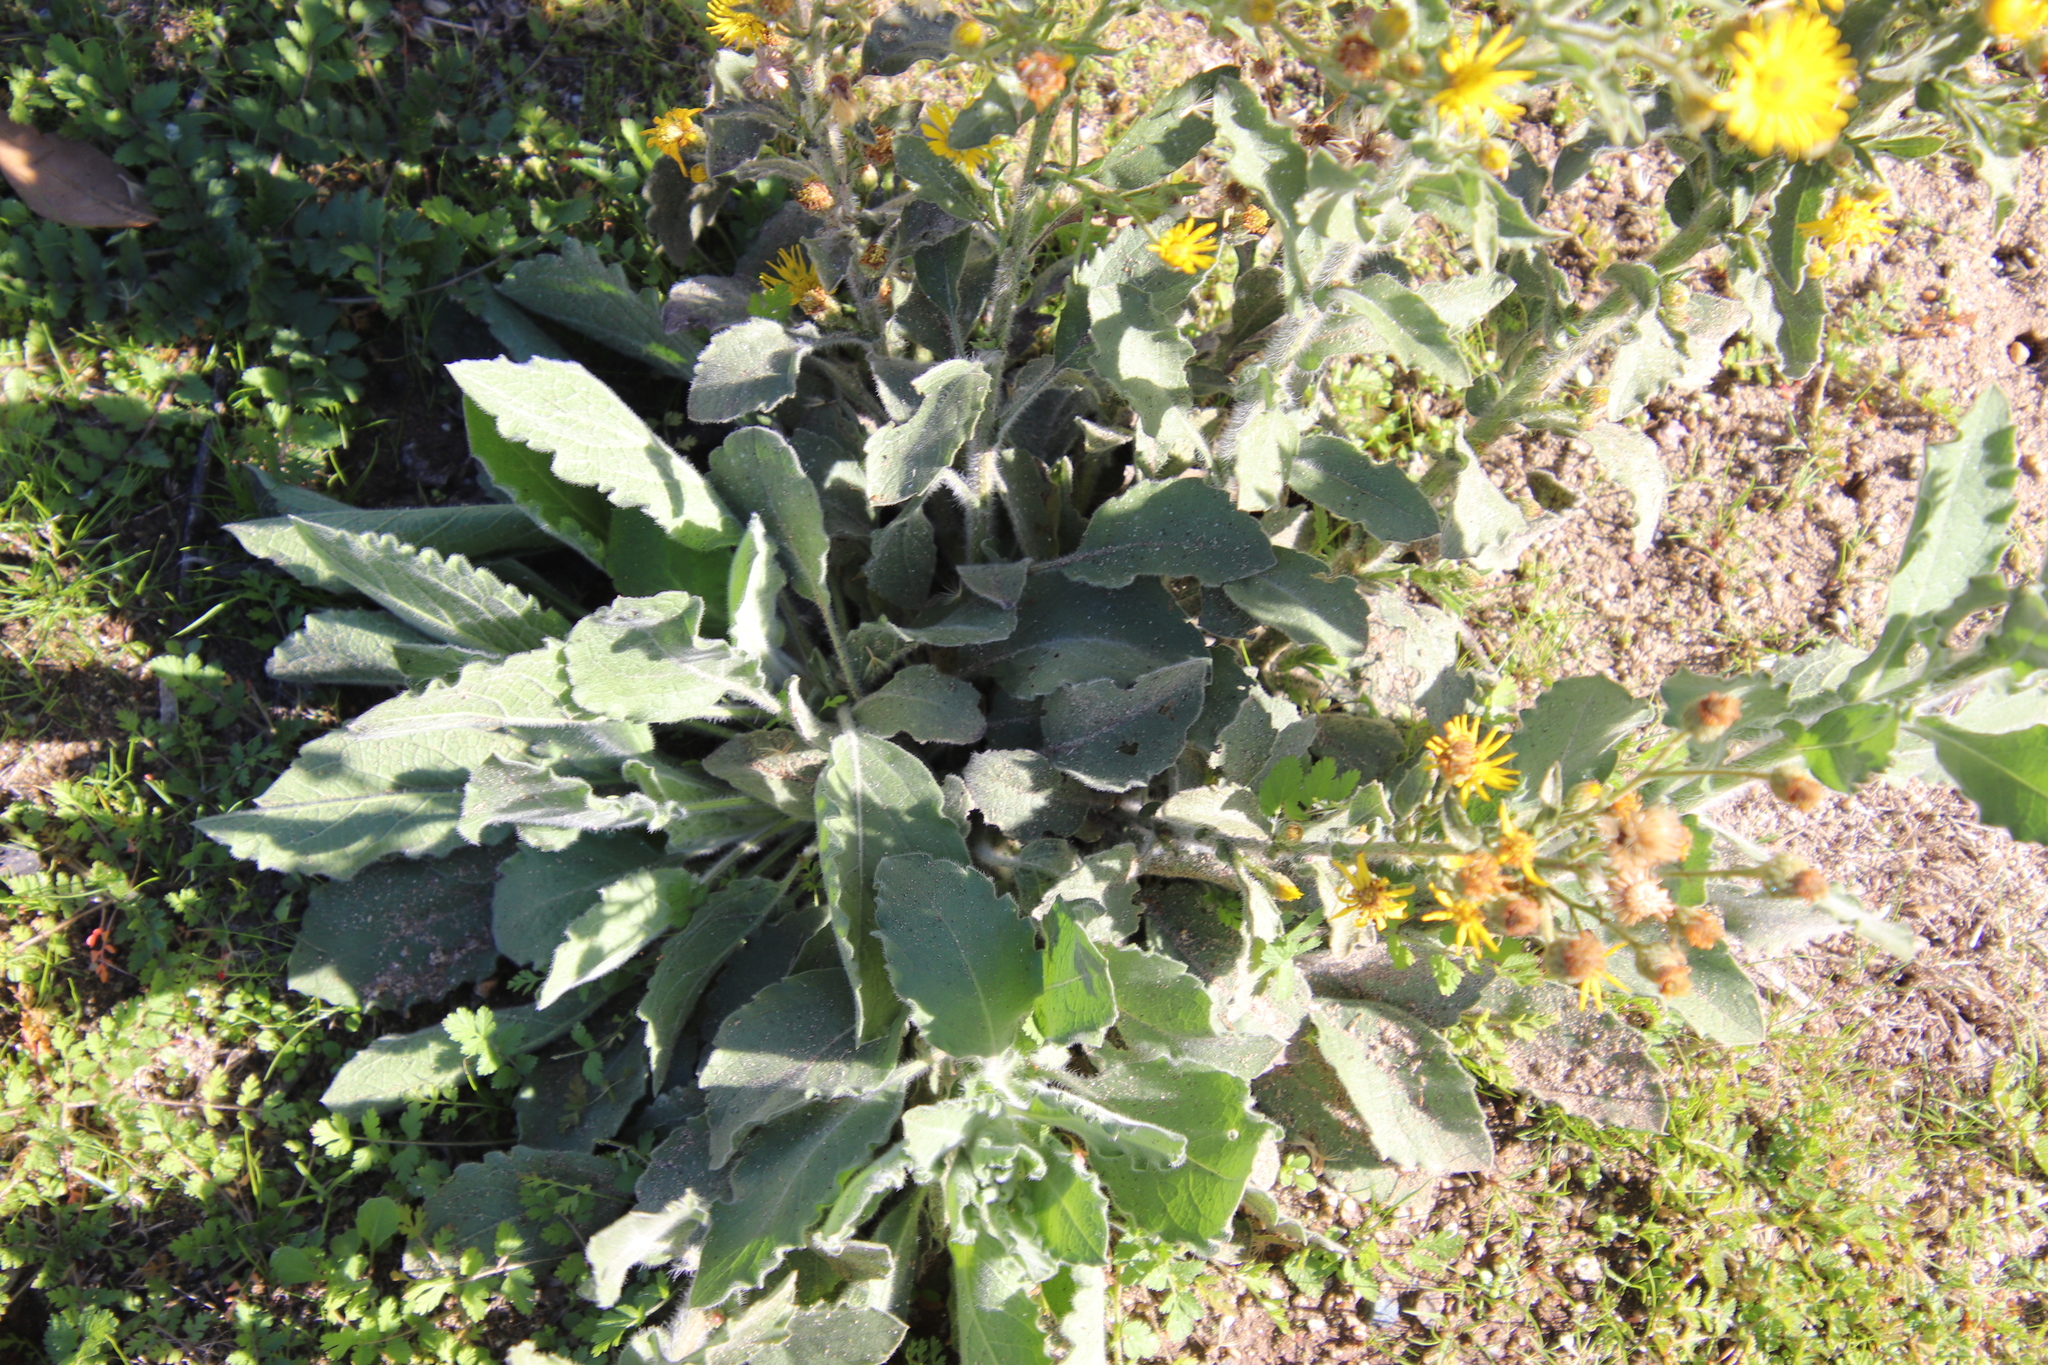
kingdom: Plantae
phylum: Tracheophyta
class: Magnoliopsida
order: Asterales
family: Asteraceae
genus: Heterotheca
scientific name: Heterotheca grandiflora
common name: Telegraphweed
